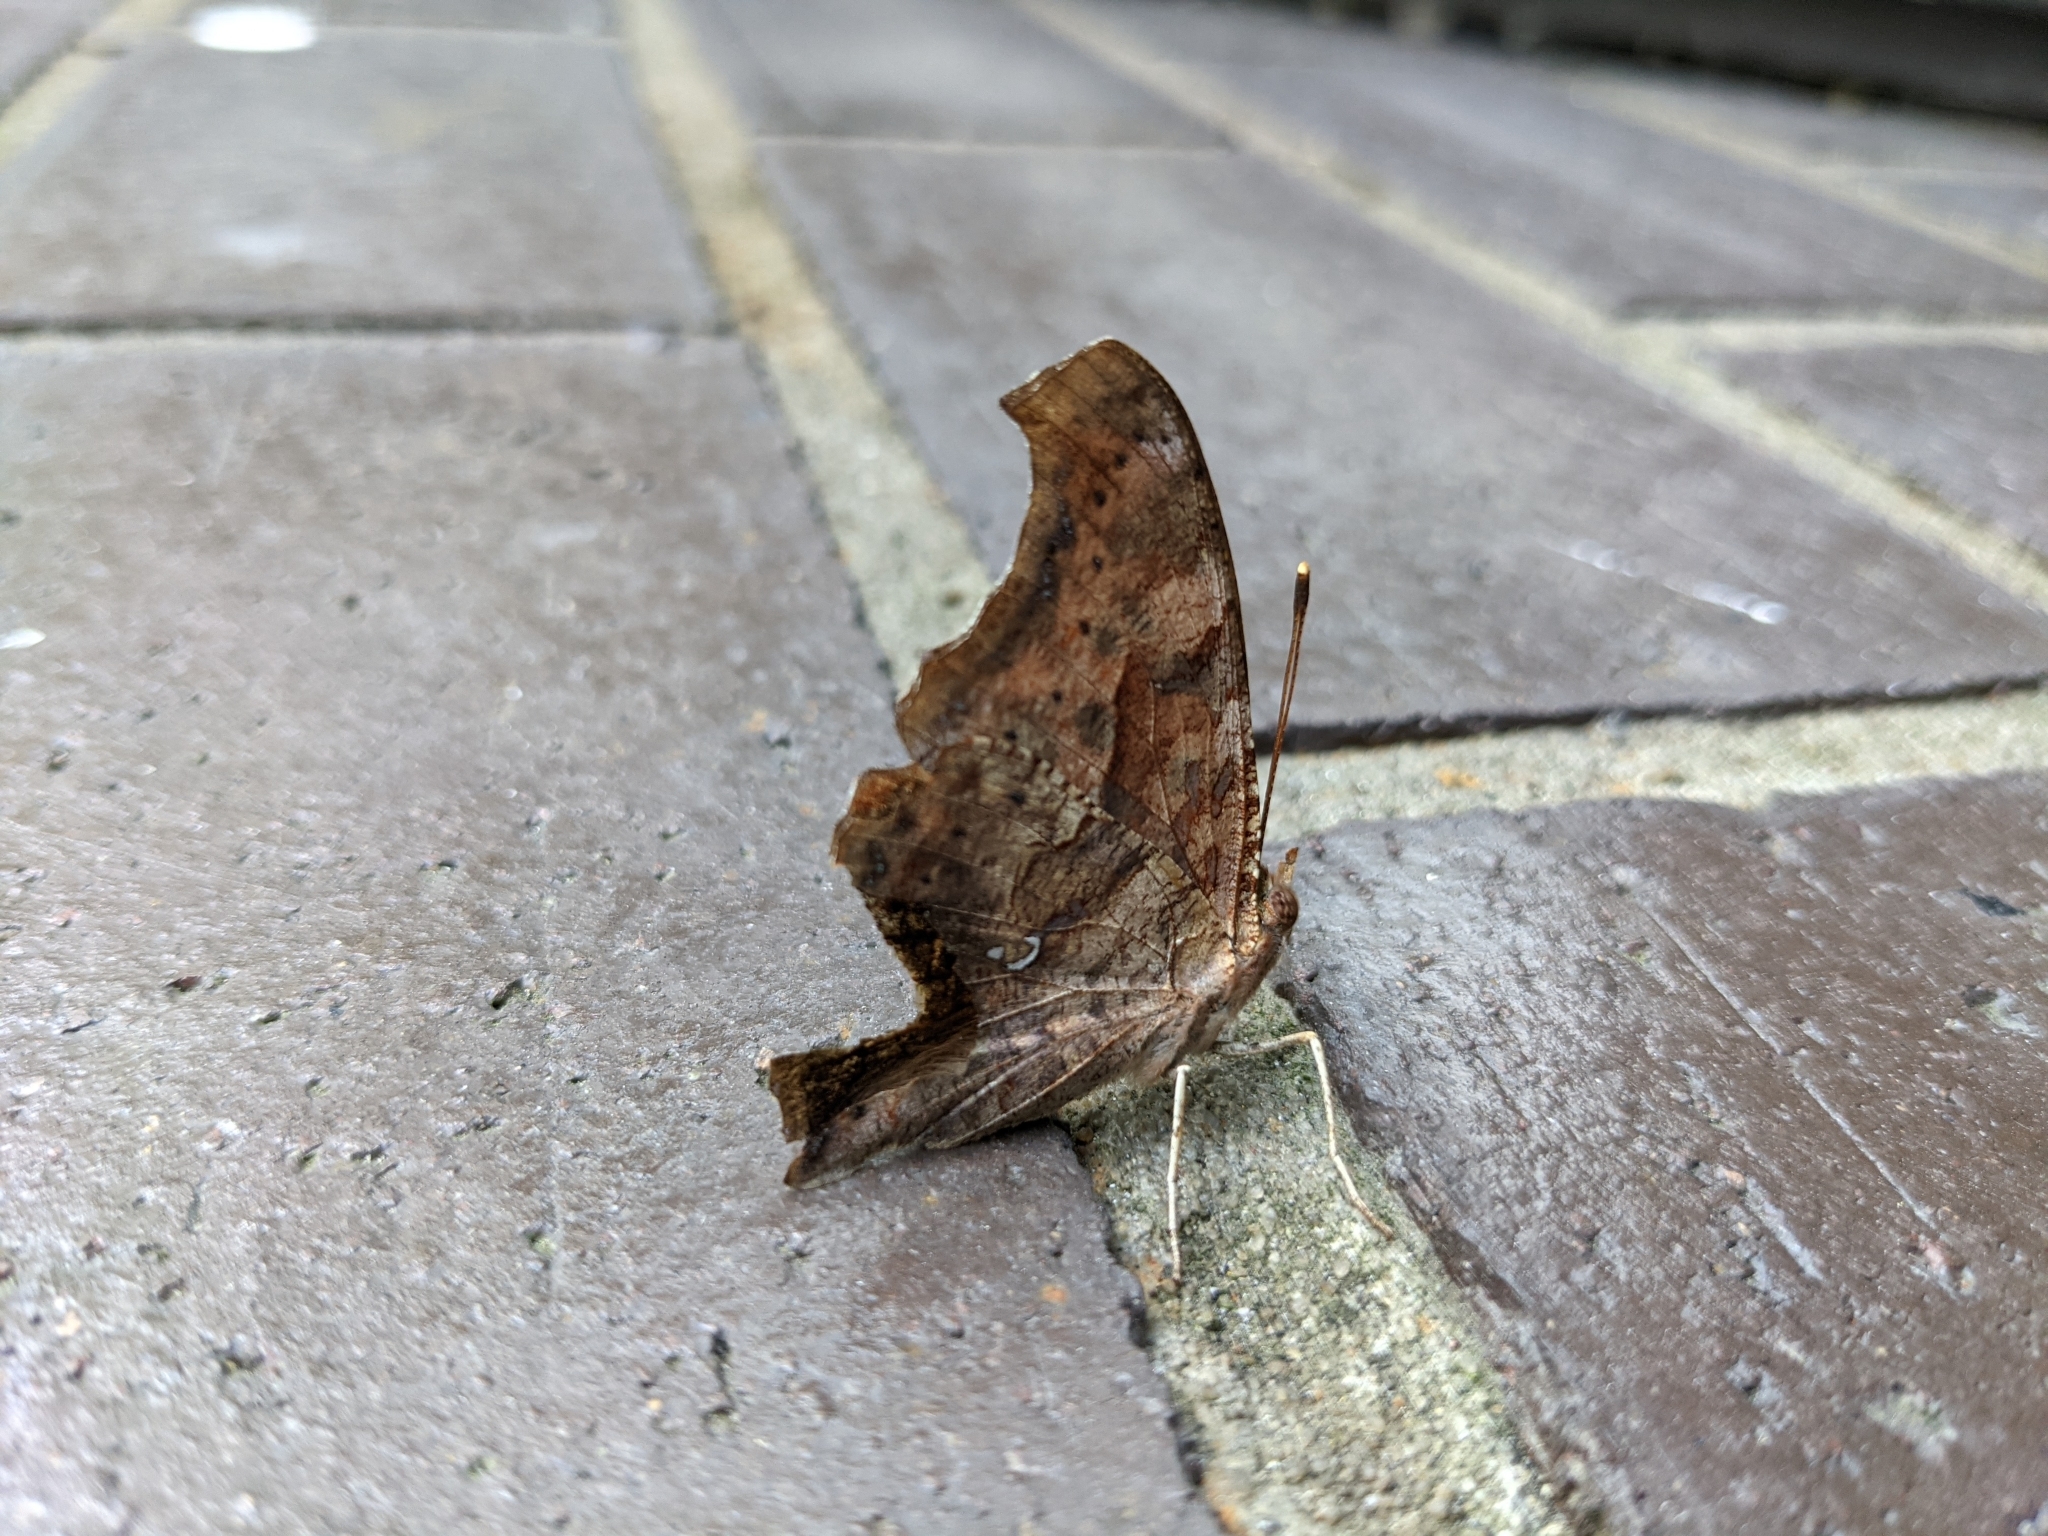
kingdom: Animalia
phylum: Arthropoda
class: Insecta
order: Lepidoptera
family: Nymphalidae
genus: Polygonia
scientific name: Polygonia interrogationis
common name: Question mark
